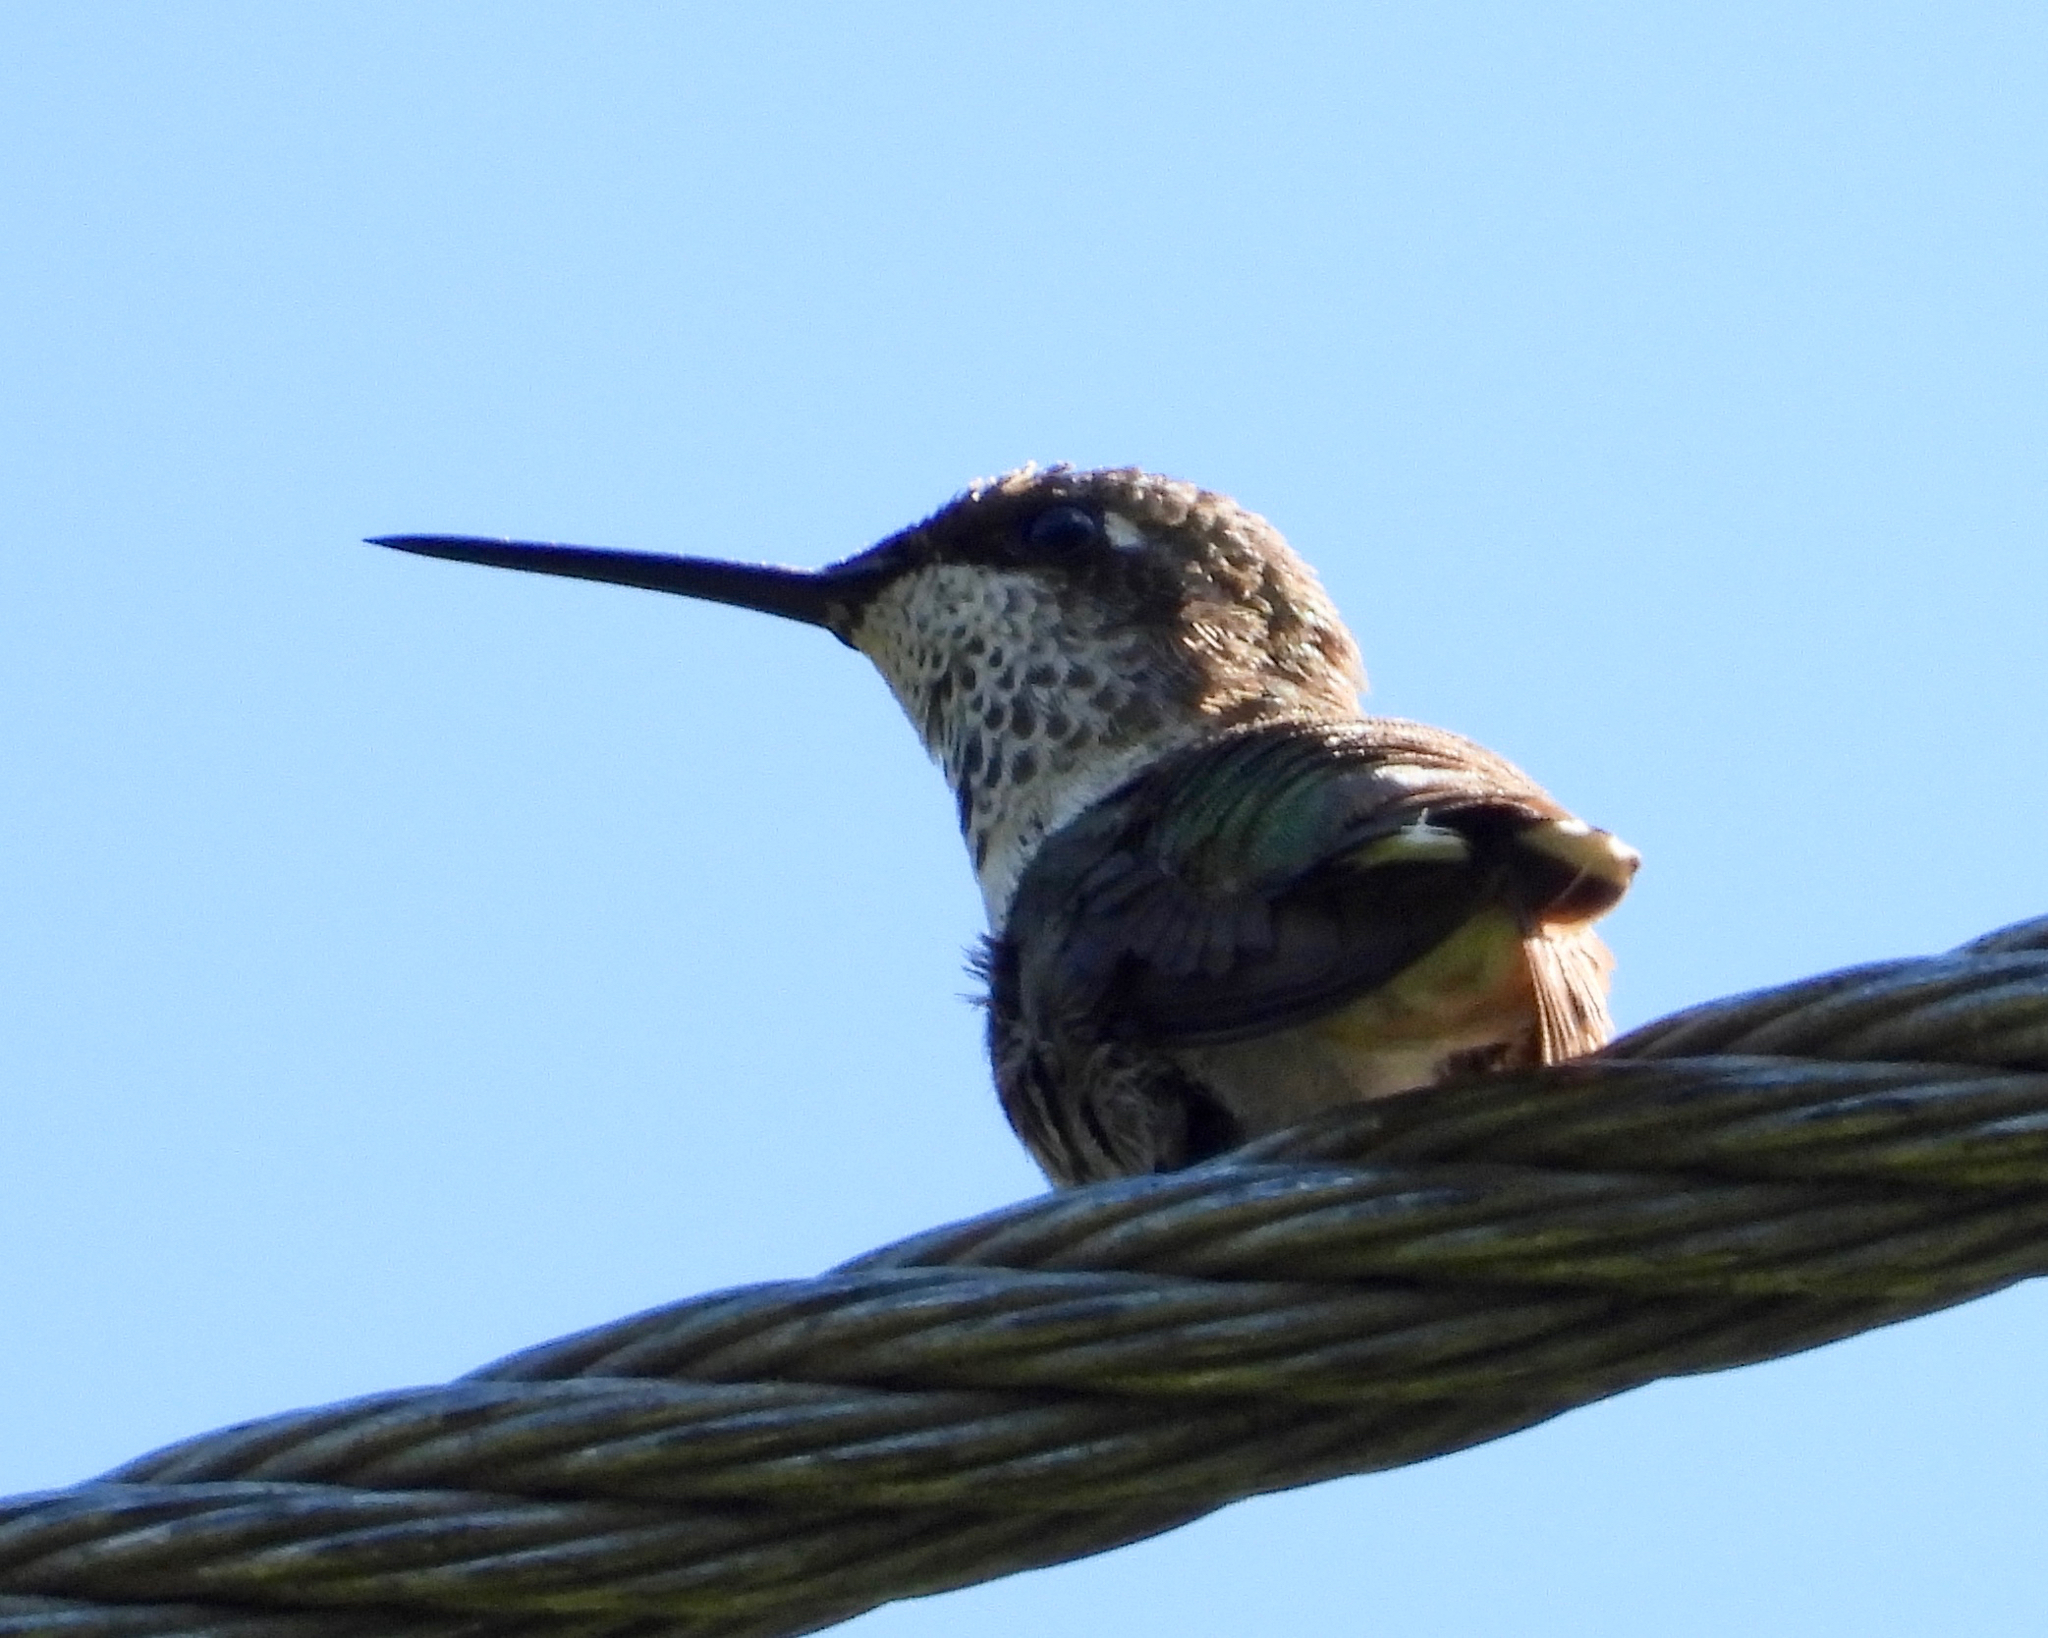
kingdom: Animalia
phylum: Chordata
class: Aves
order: Apodiformes
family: Trochilidae
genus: Archilochus
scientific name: Archilochus colubris
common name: Ruby-throated hummingbird
